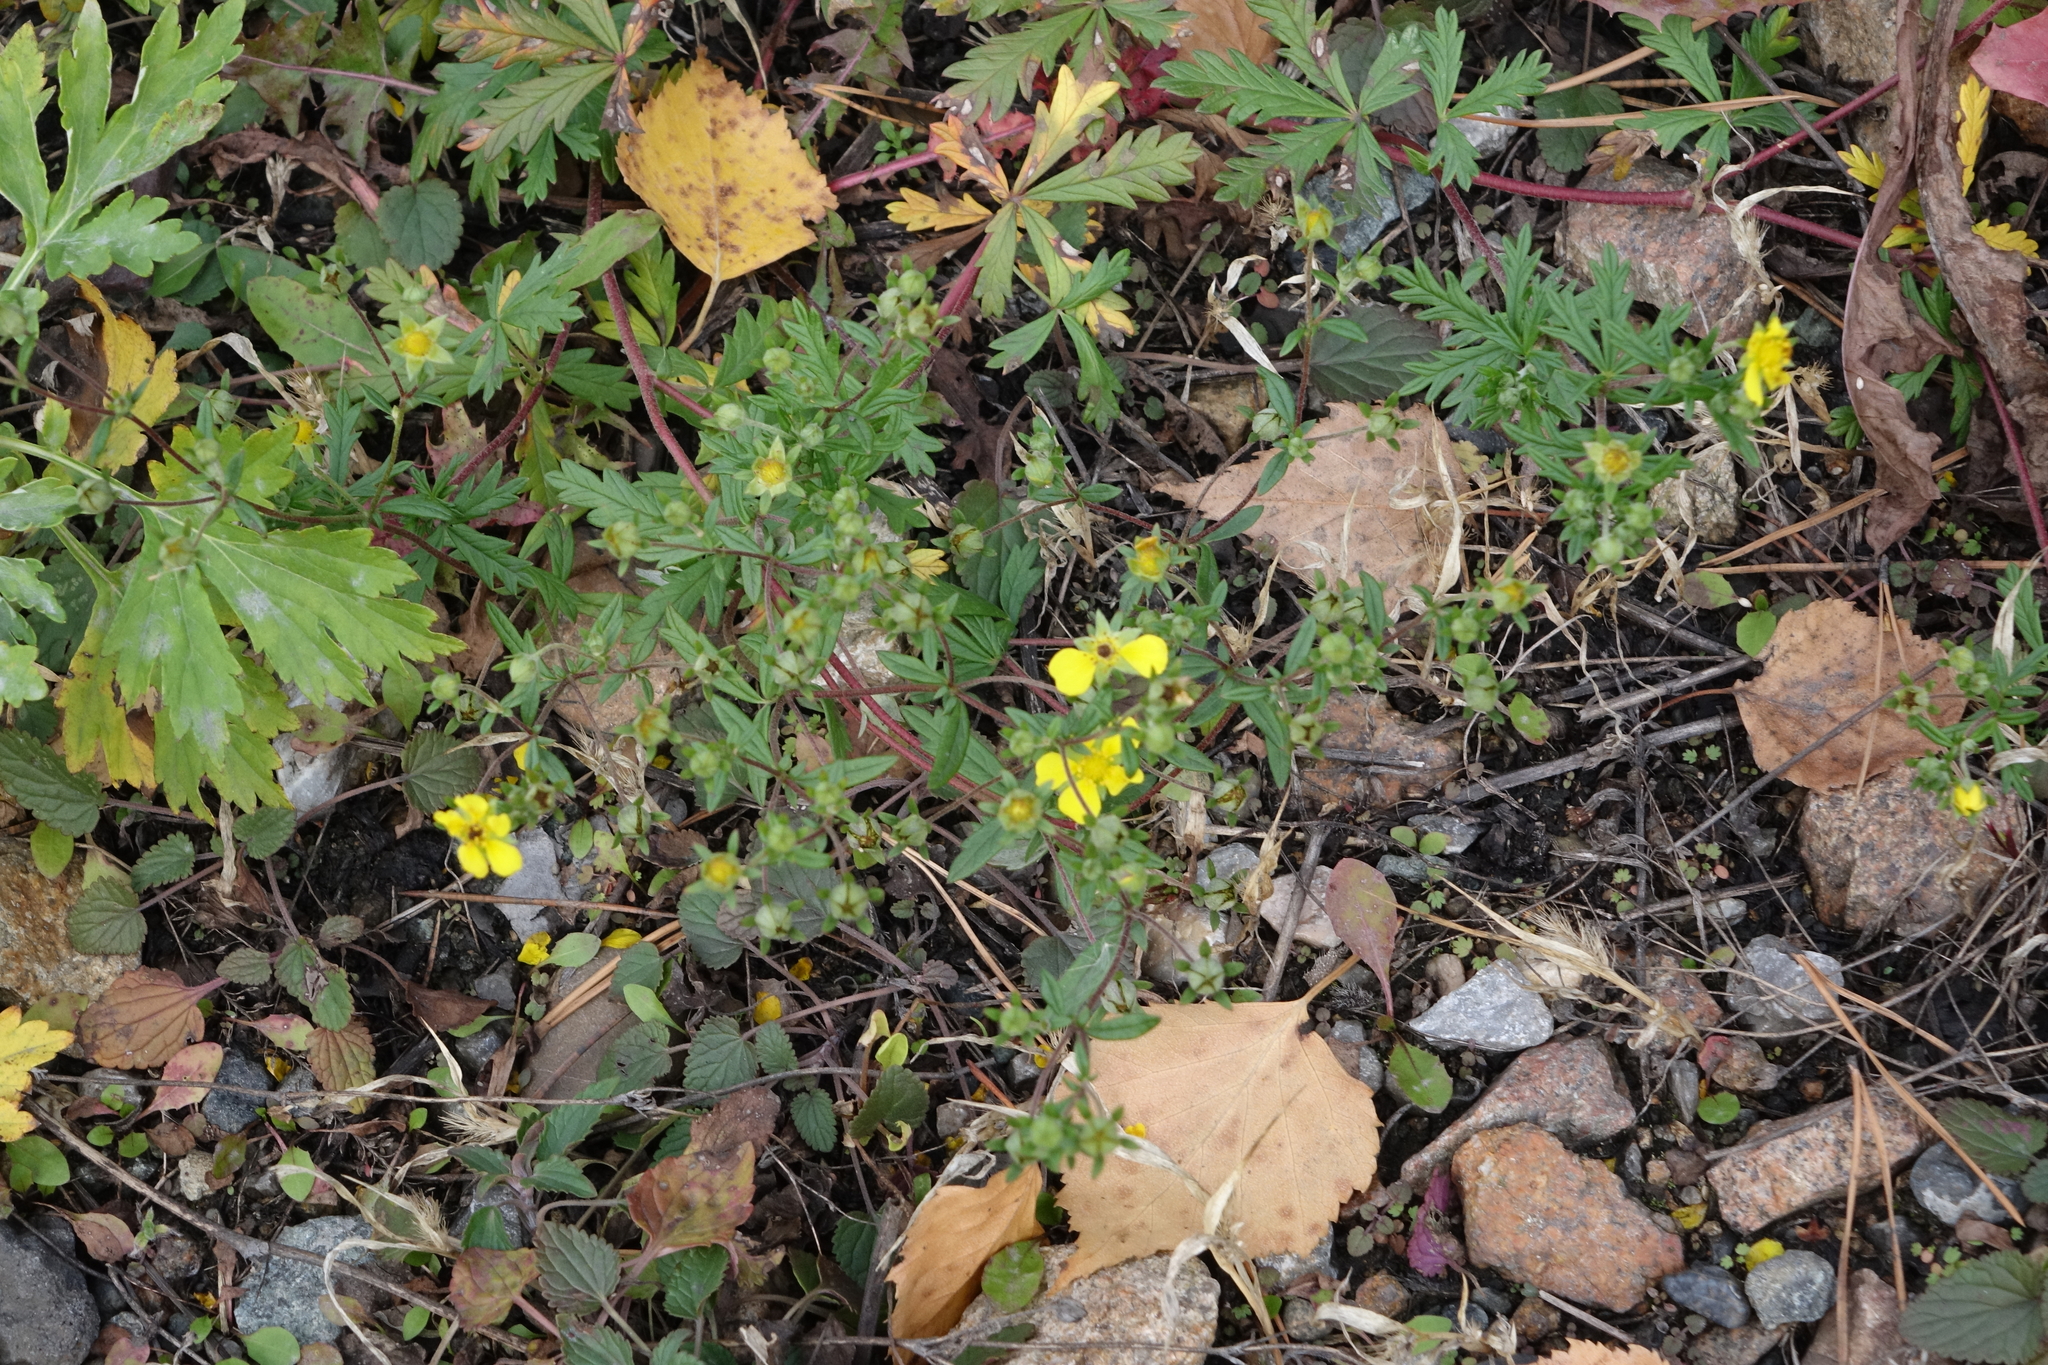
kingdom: Plantae
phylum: Tracheophyta
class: Magnoliopsida
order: Rosales
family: Rosaceae
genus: Potentilla
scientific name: Potentilla argentea
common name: Hoary cinquefoil
